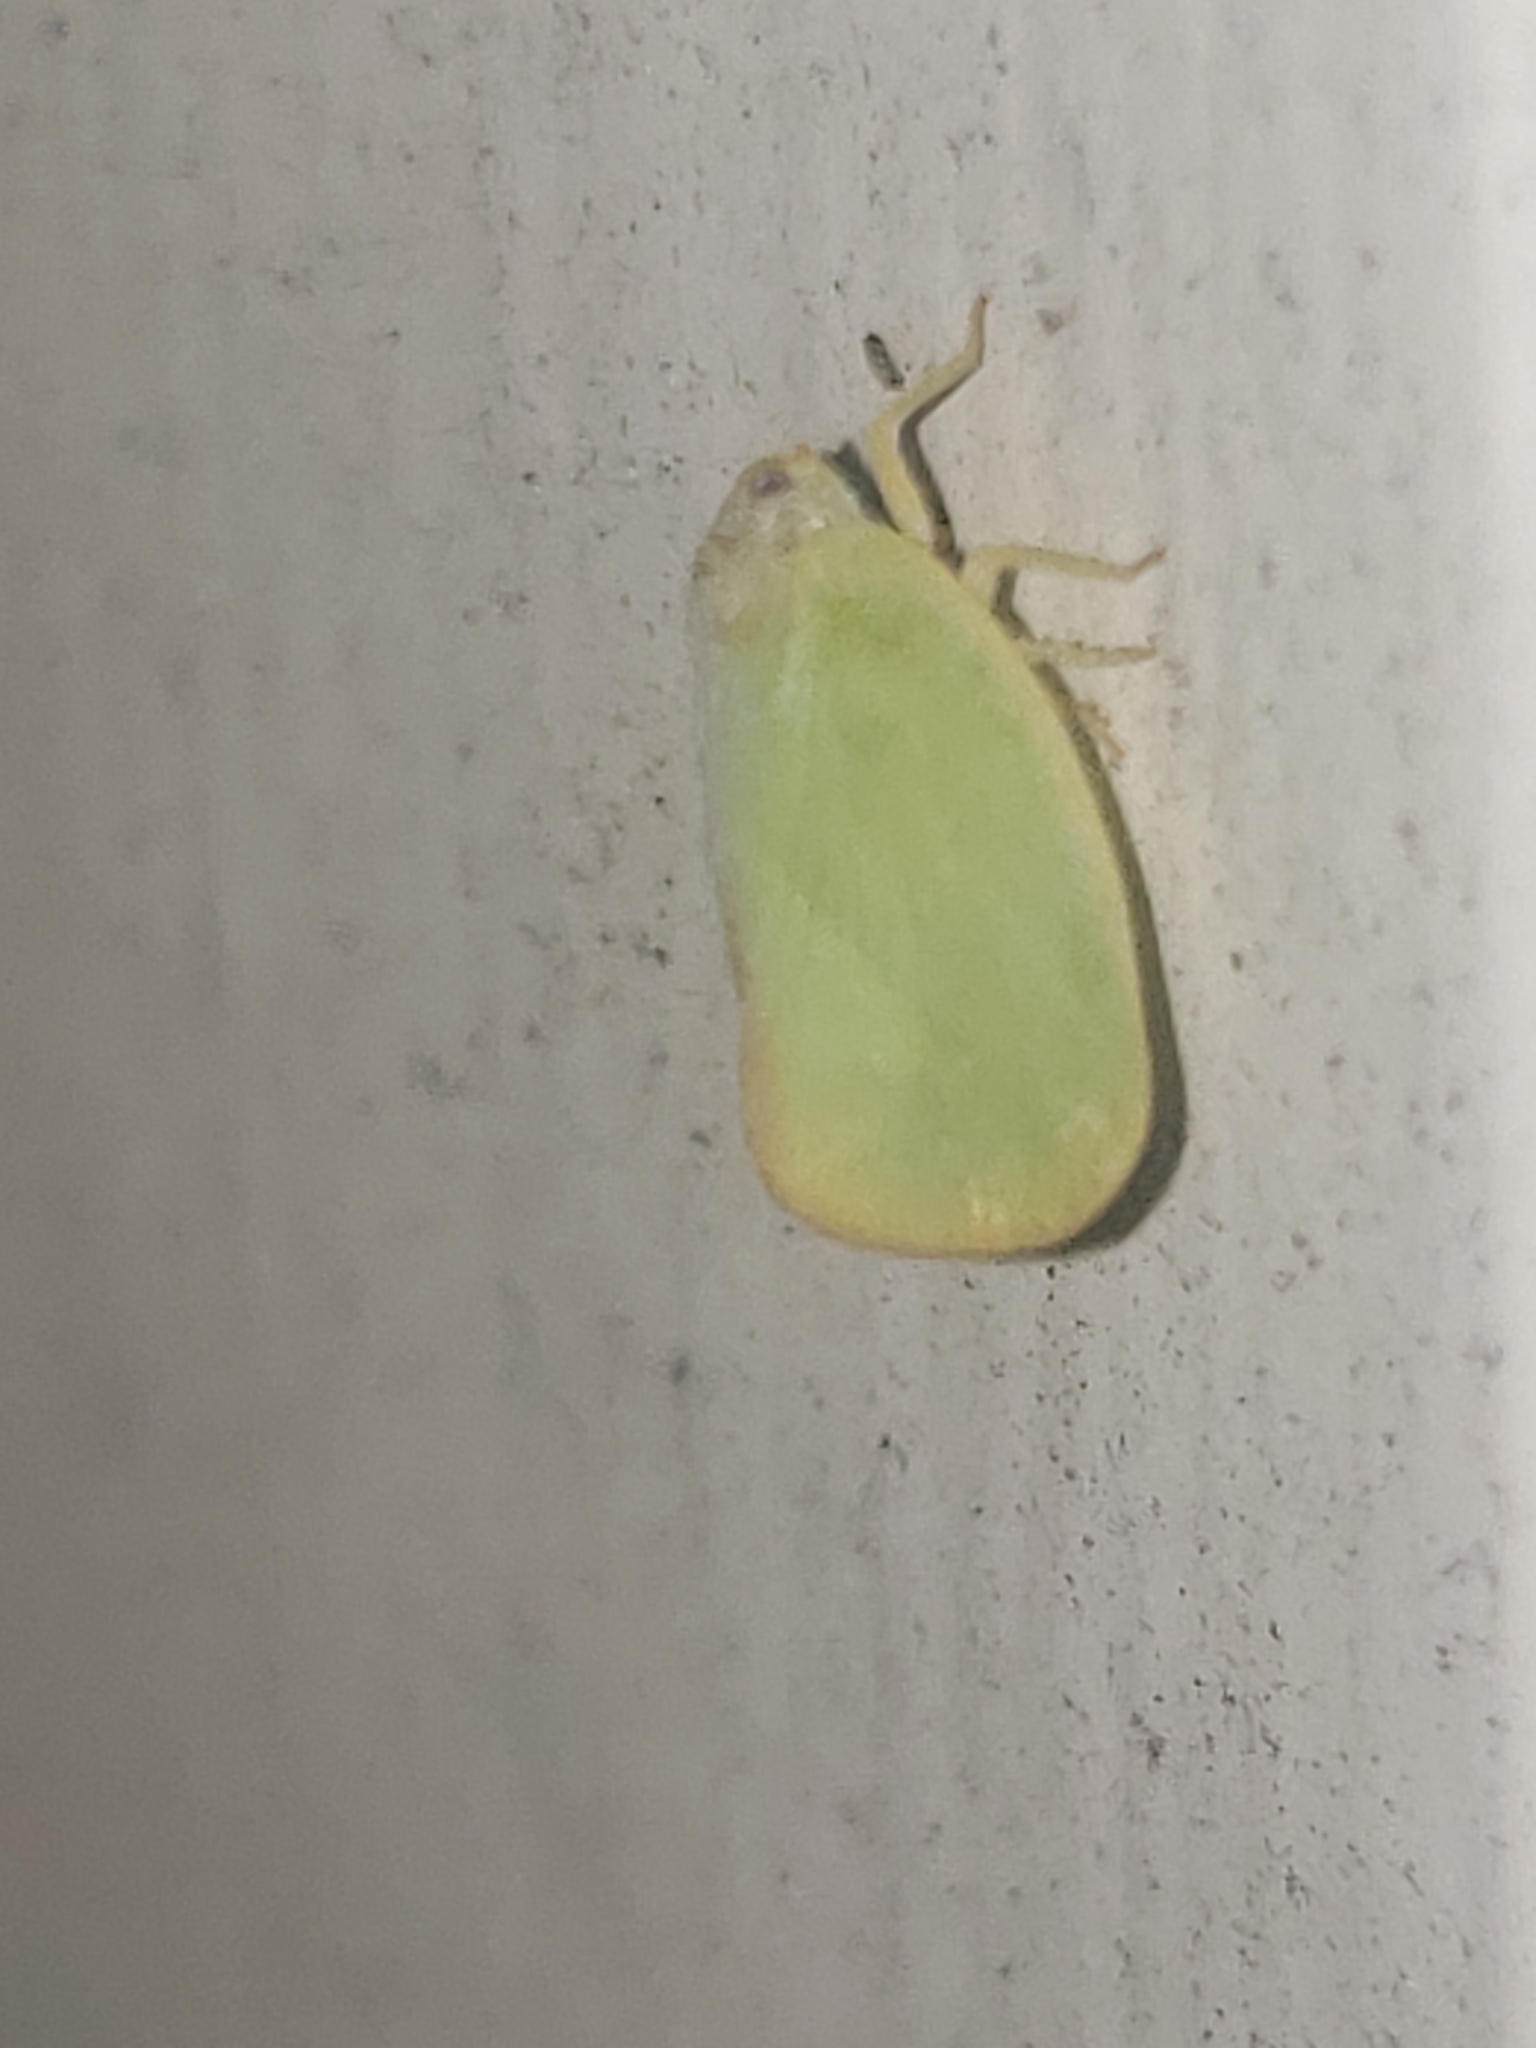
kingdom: Animalia
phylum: Arthropoda
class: Insecta
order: Hemiptera
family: Flatidae
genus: Ormenoides
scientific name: Ormenoides venusta
